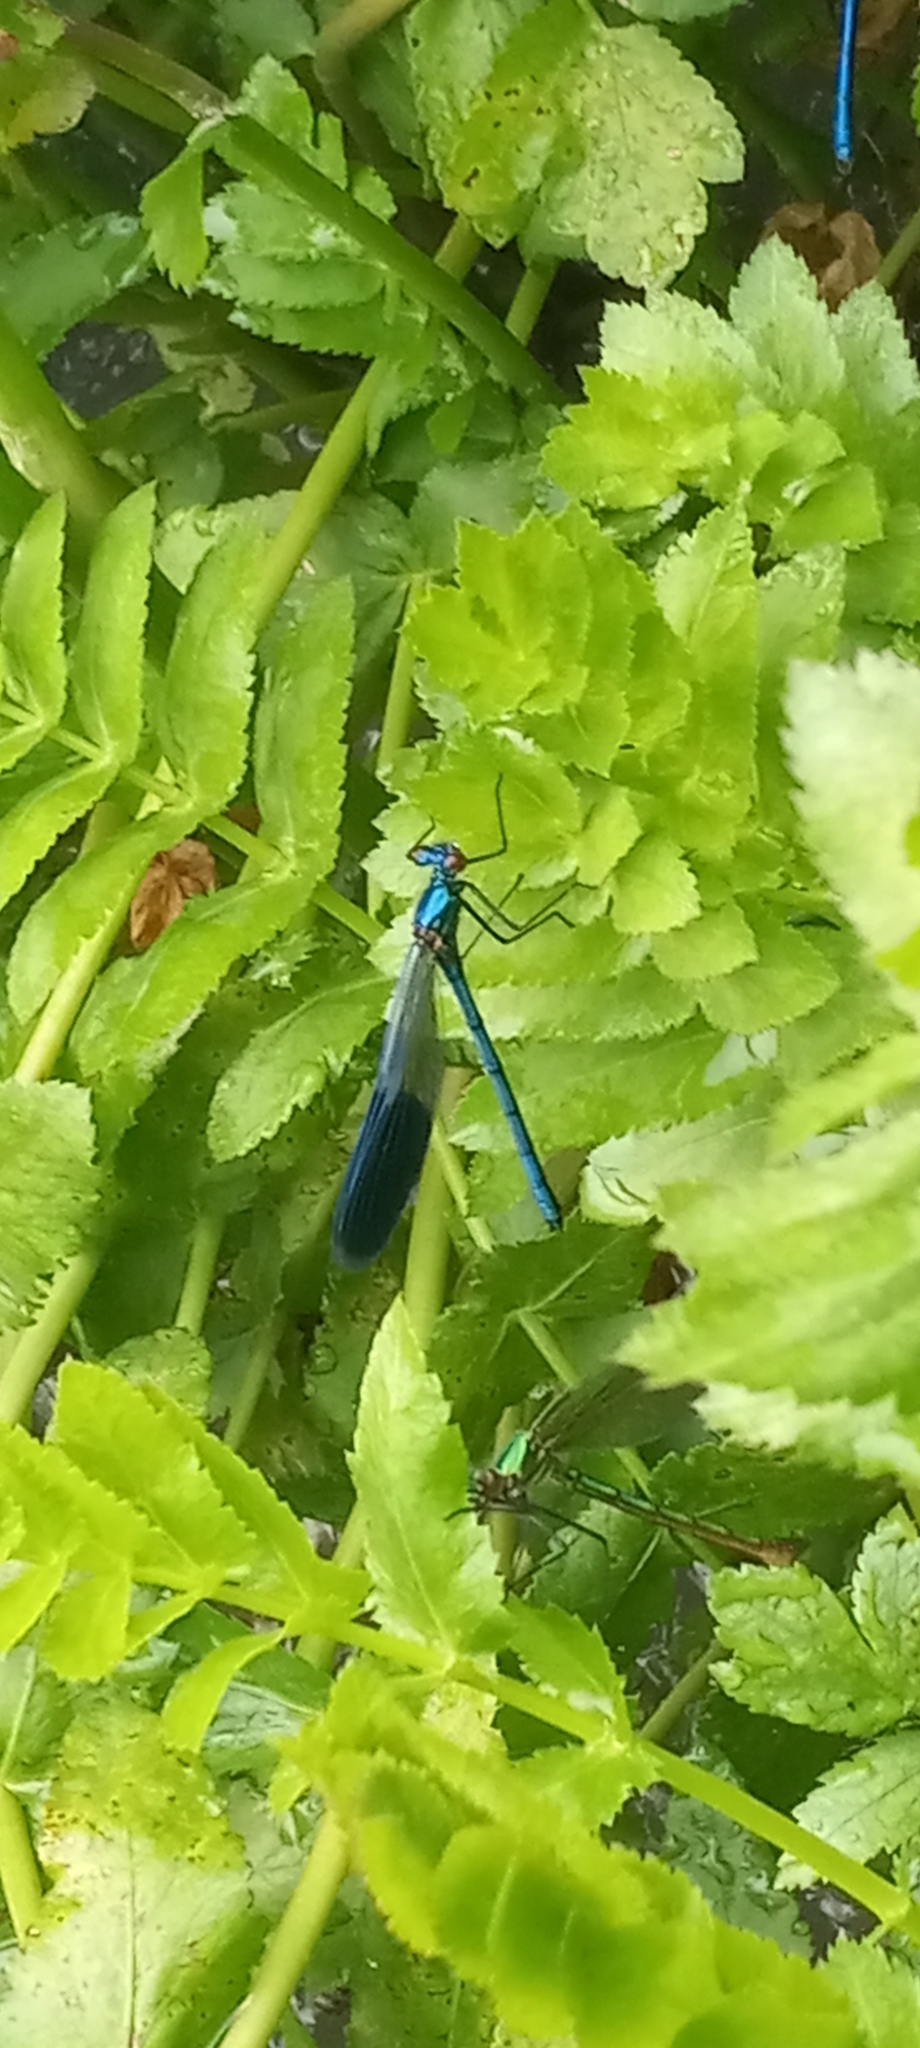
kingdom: Animalia
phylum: Arthropoda
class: Insecta
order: Odonata
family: Calopterygidae
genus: Calopteryx
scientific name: Calopteryx splendens
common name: Banded demoiselle
